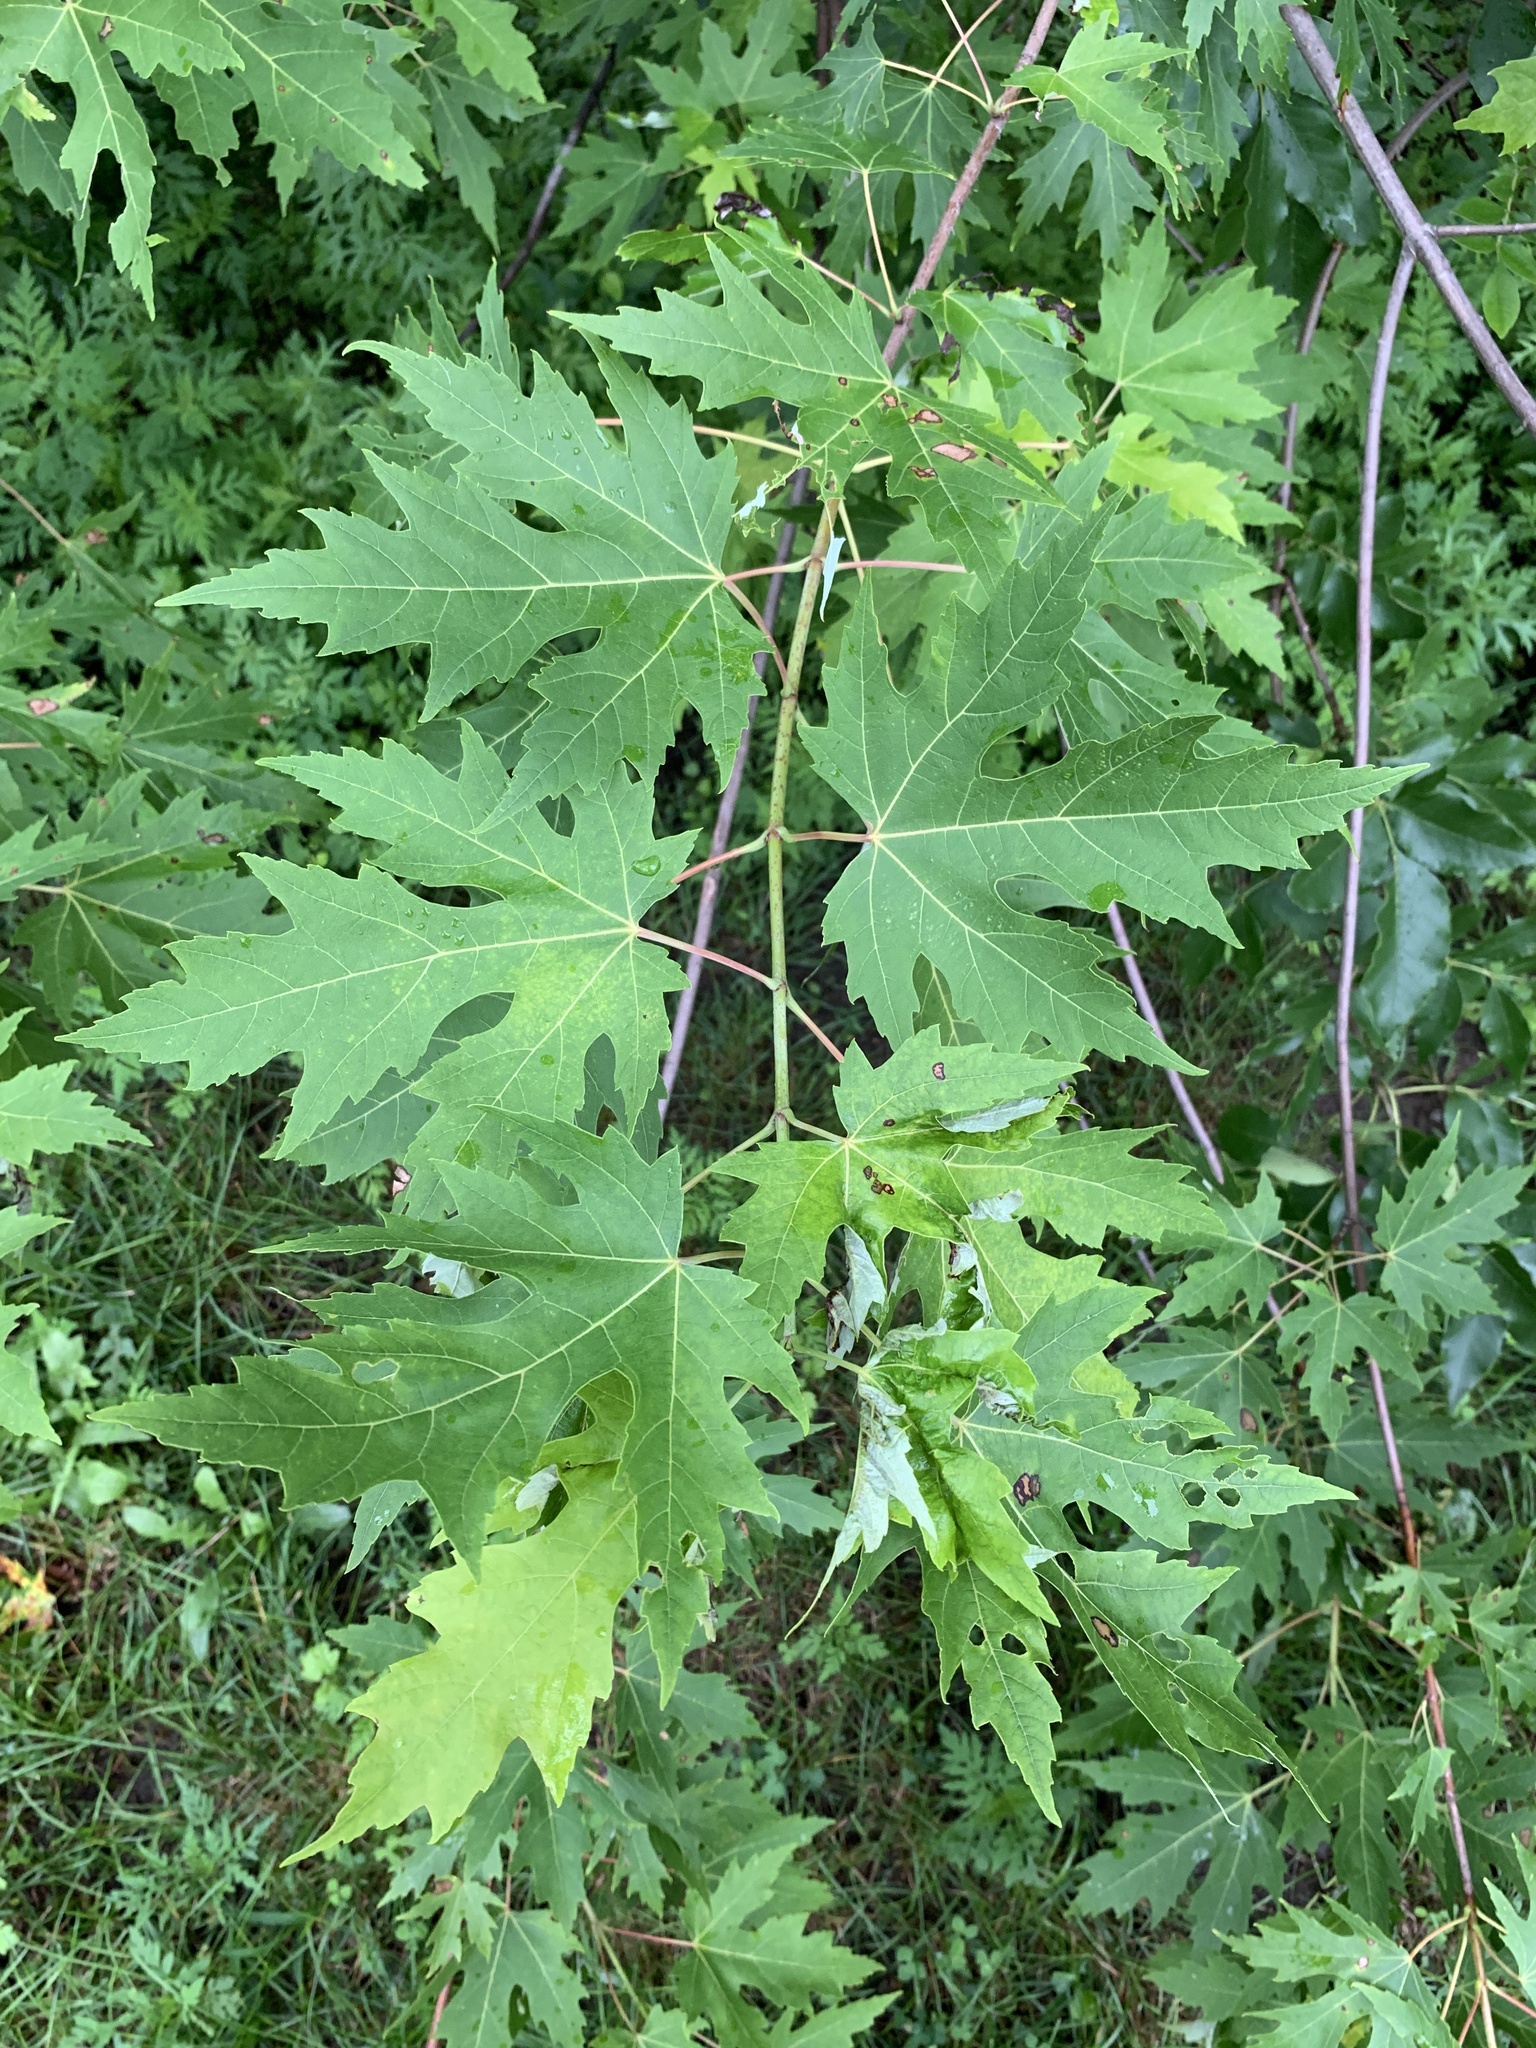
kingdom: Plantae
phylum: Tracheophyta
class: Magnoliopsida
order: Sapindales
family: Sapindaceae
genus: Acer
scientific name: Acer saccharinum
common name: Silver maple
